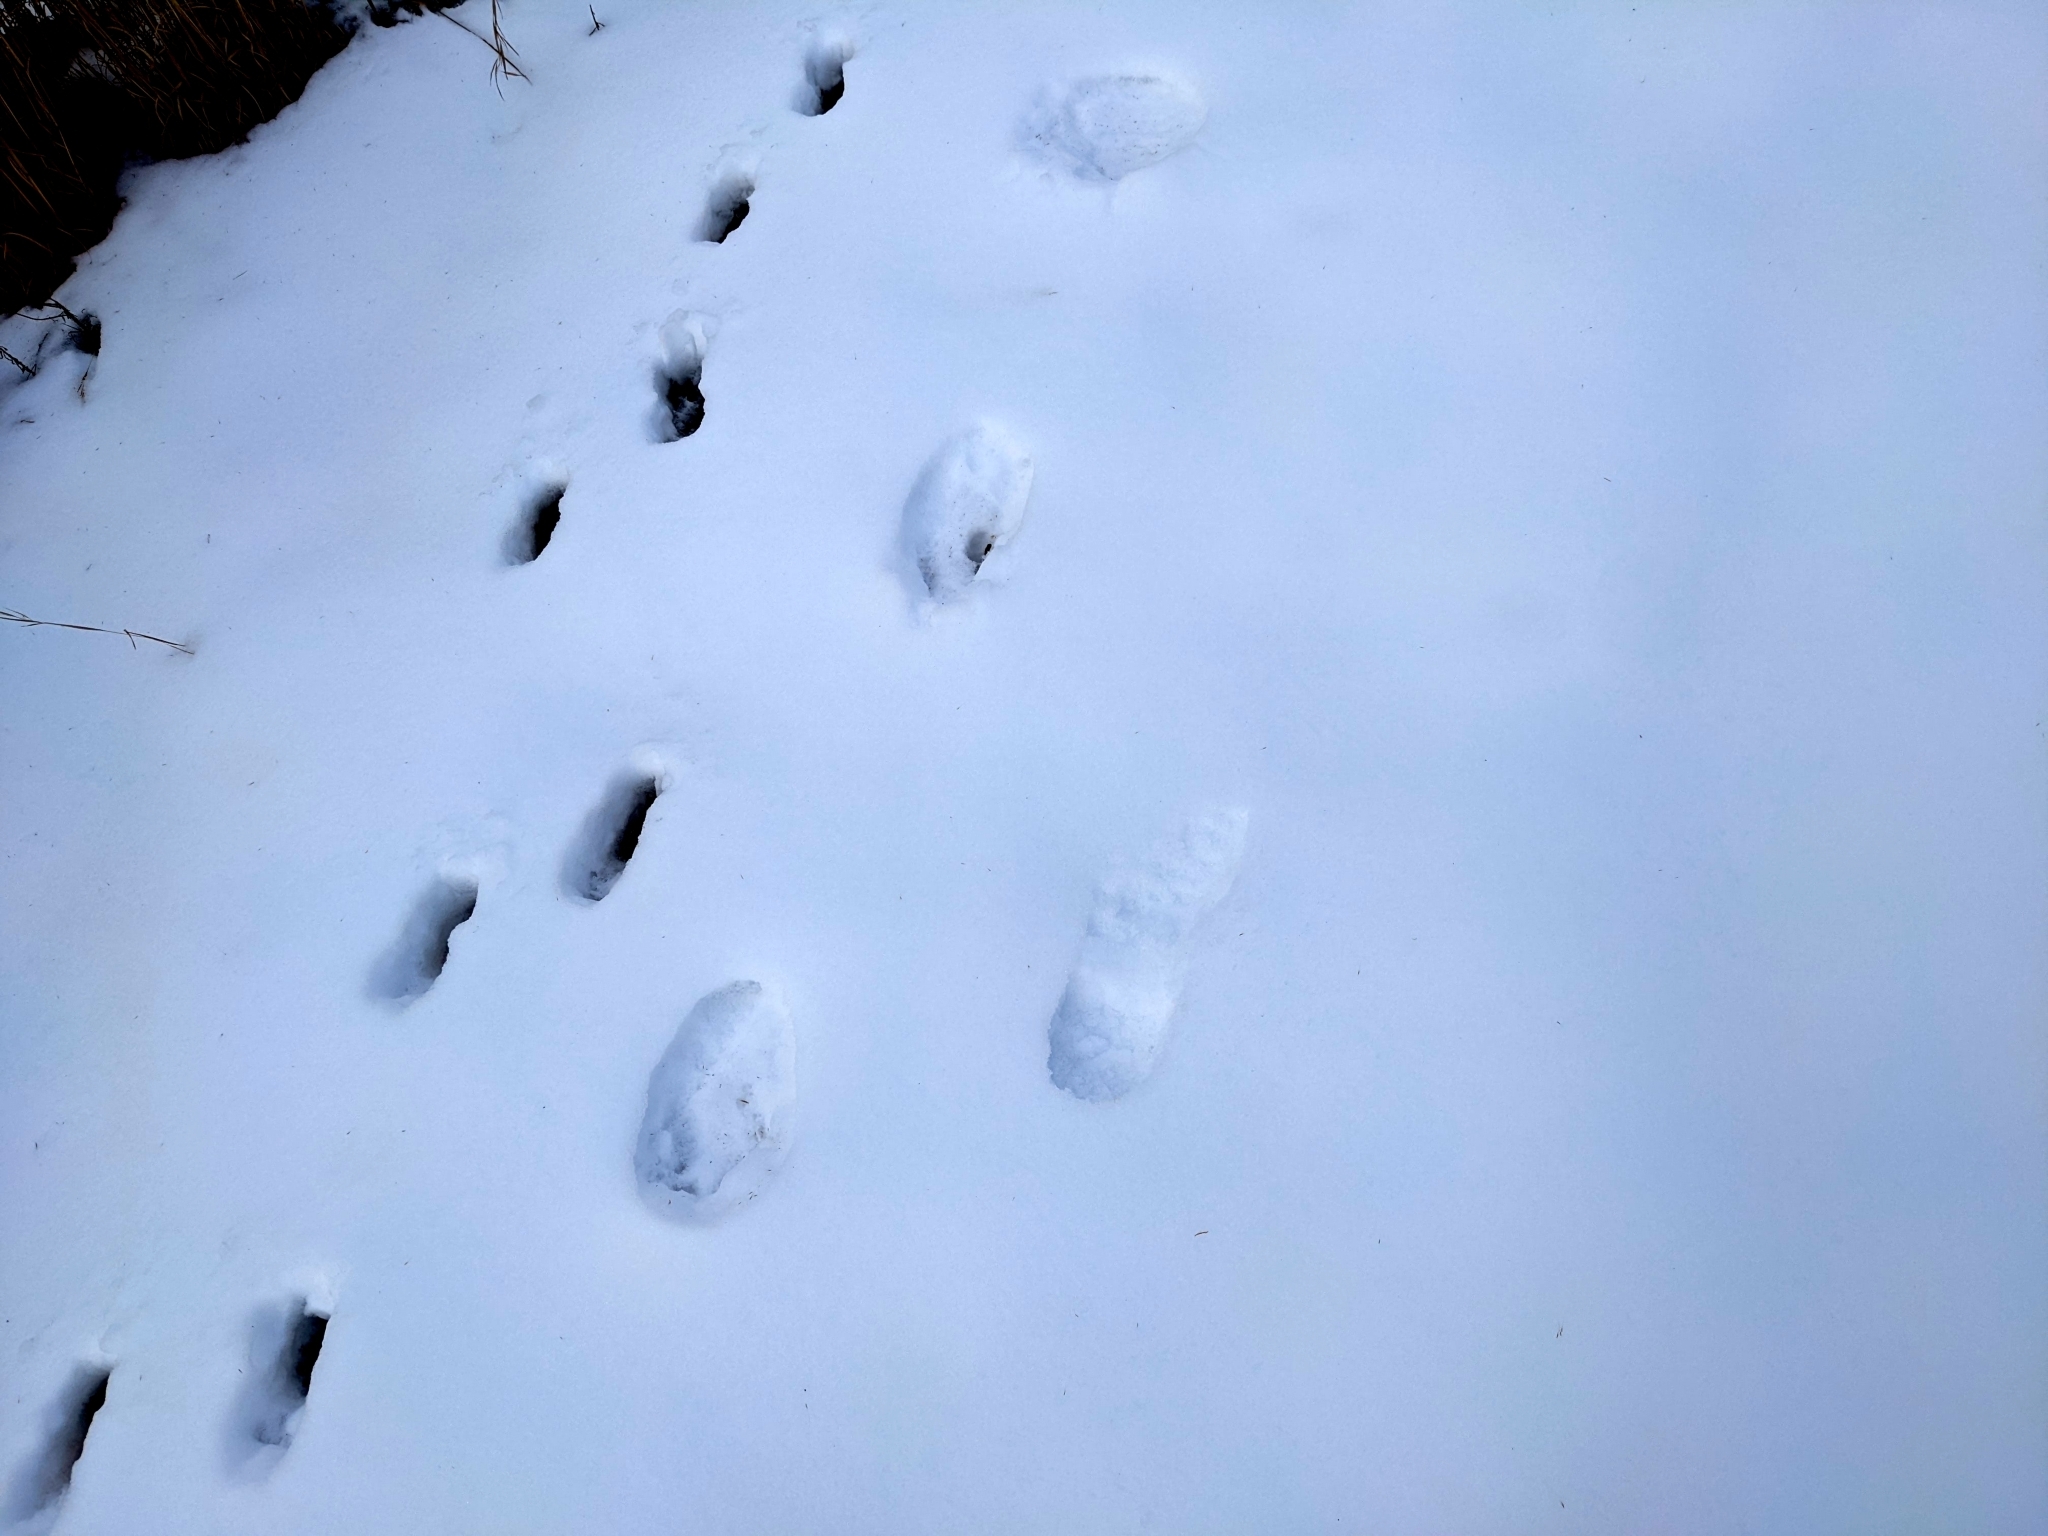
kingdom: Animalia
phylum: Chordata
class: Mammalia
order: Carnivora
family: Ursidae
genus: Ursus
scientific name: Ursus americanus
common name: American black bear
